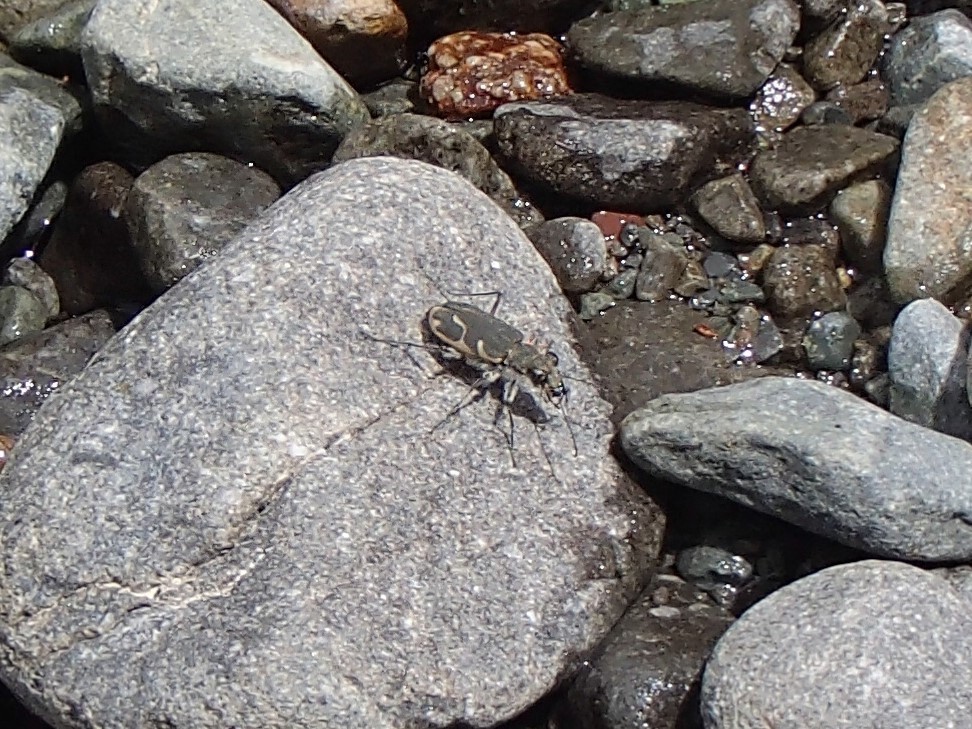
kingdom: Animalia
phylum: Arthropoda
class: Insecta
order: Coleoptera
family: Carabidae
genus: Zecicindela
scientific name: Zecicindela feredayi
